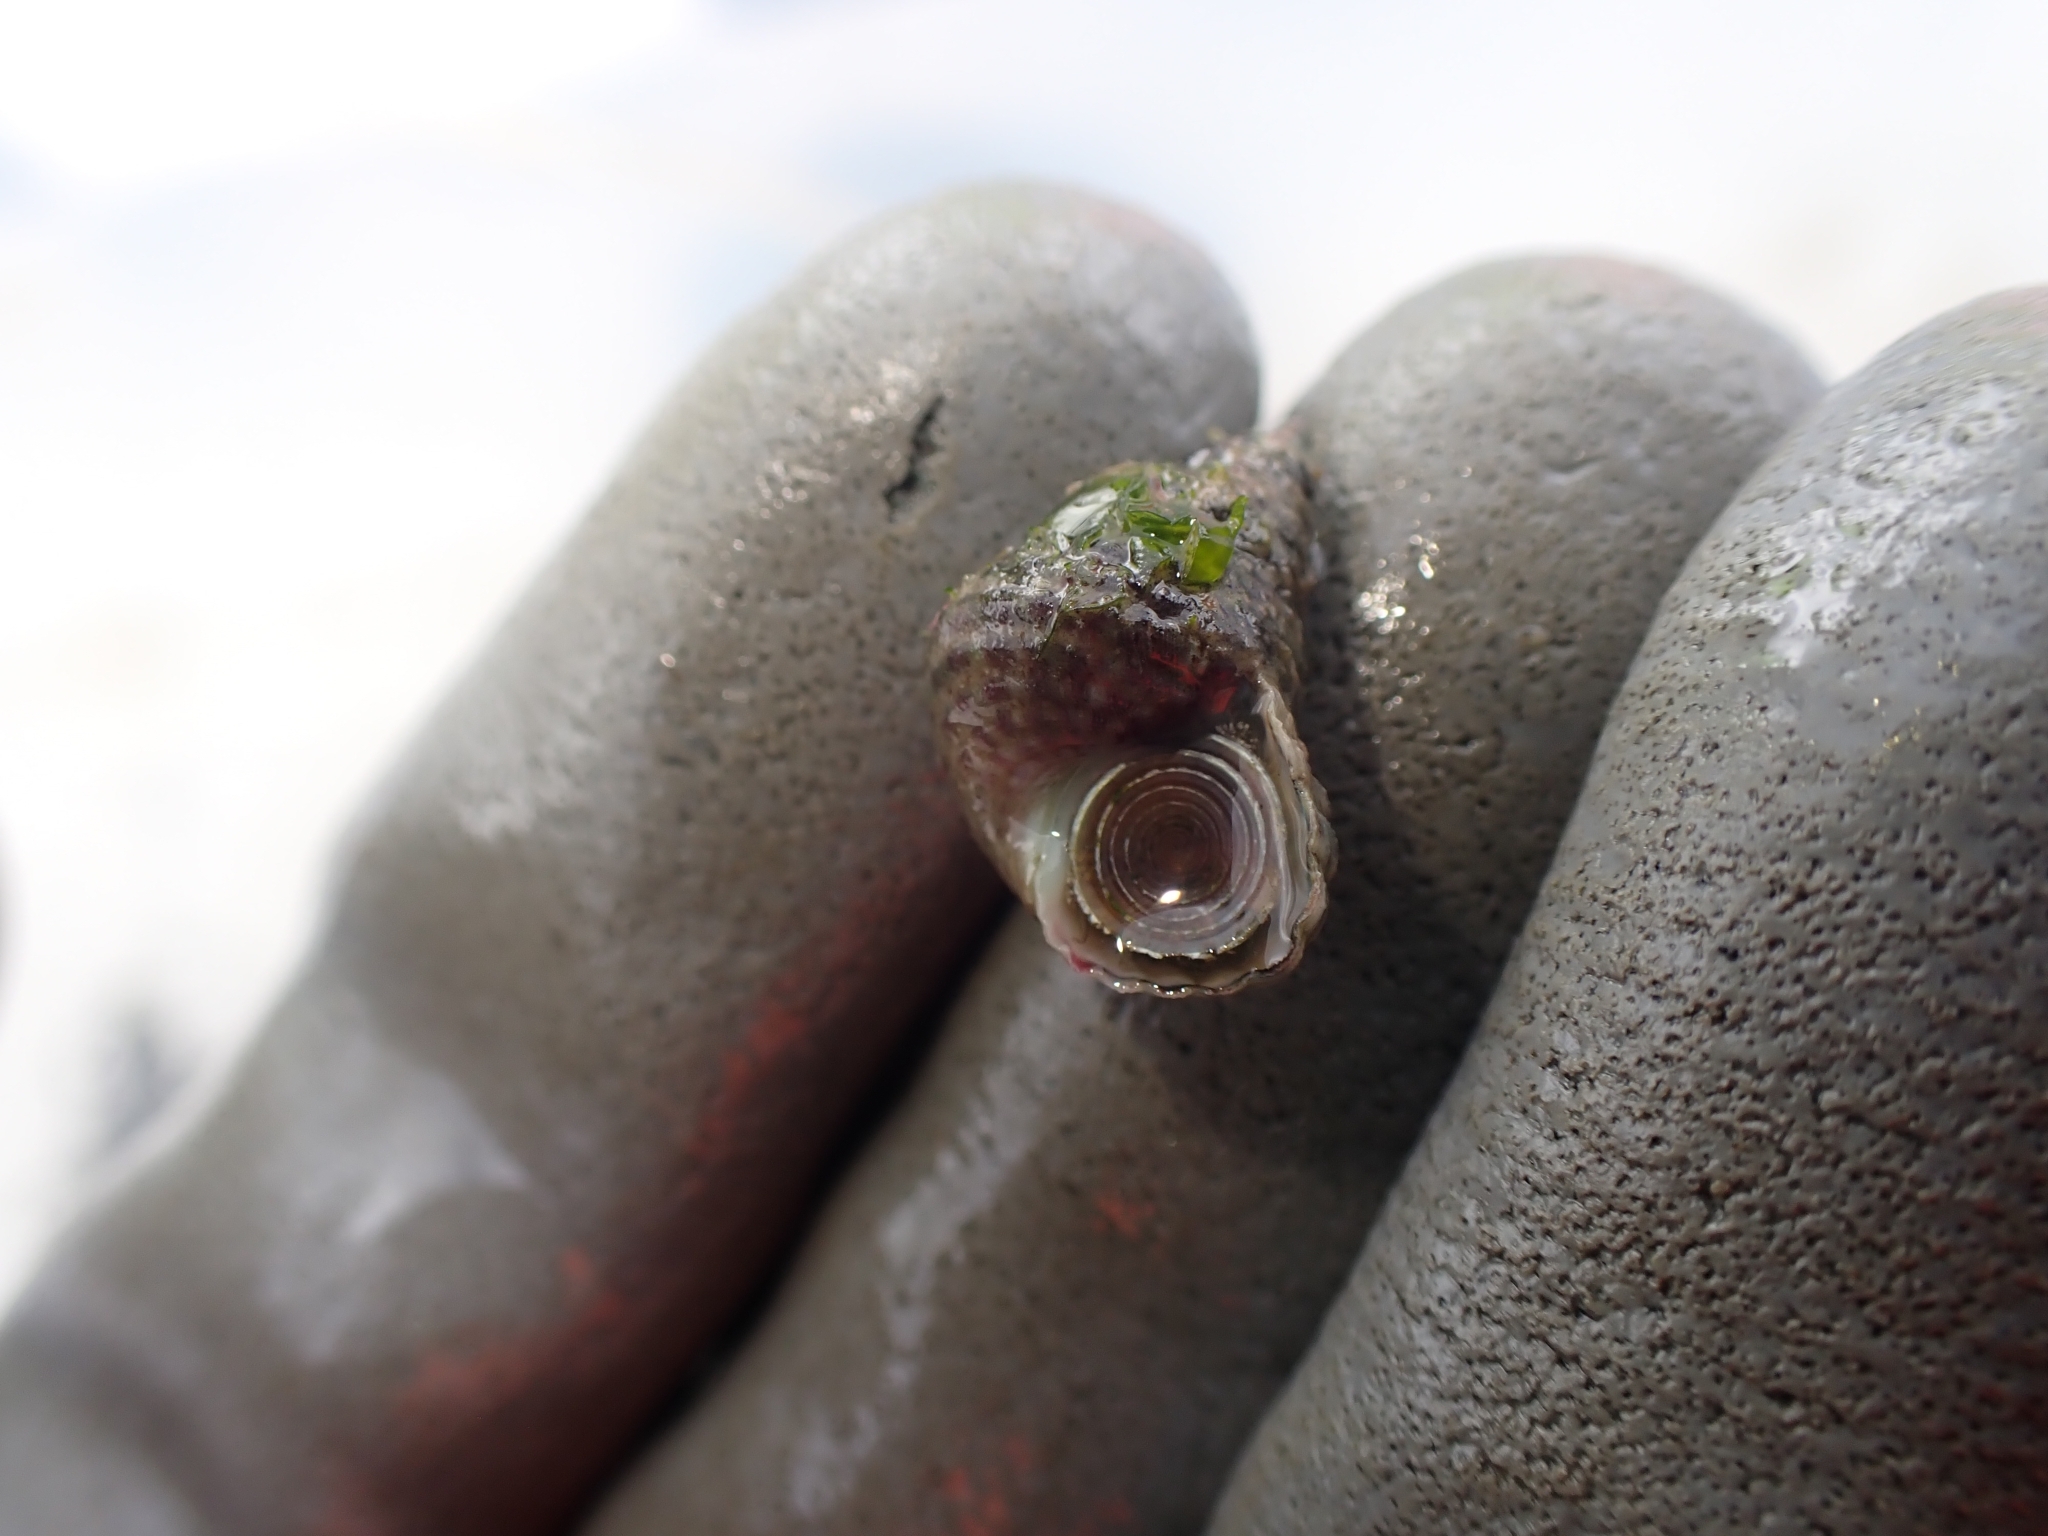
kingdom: Animalia
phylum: Mollusca
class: Gastropoda
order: Trochida
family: Trochidae
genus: Micrelenchus
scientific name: Micrelenchus purpureus
